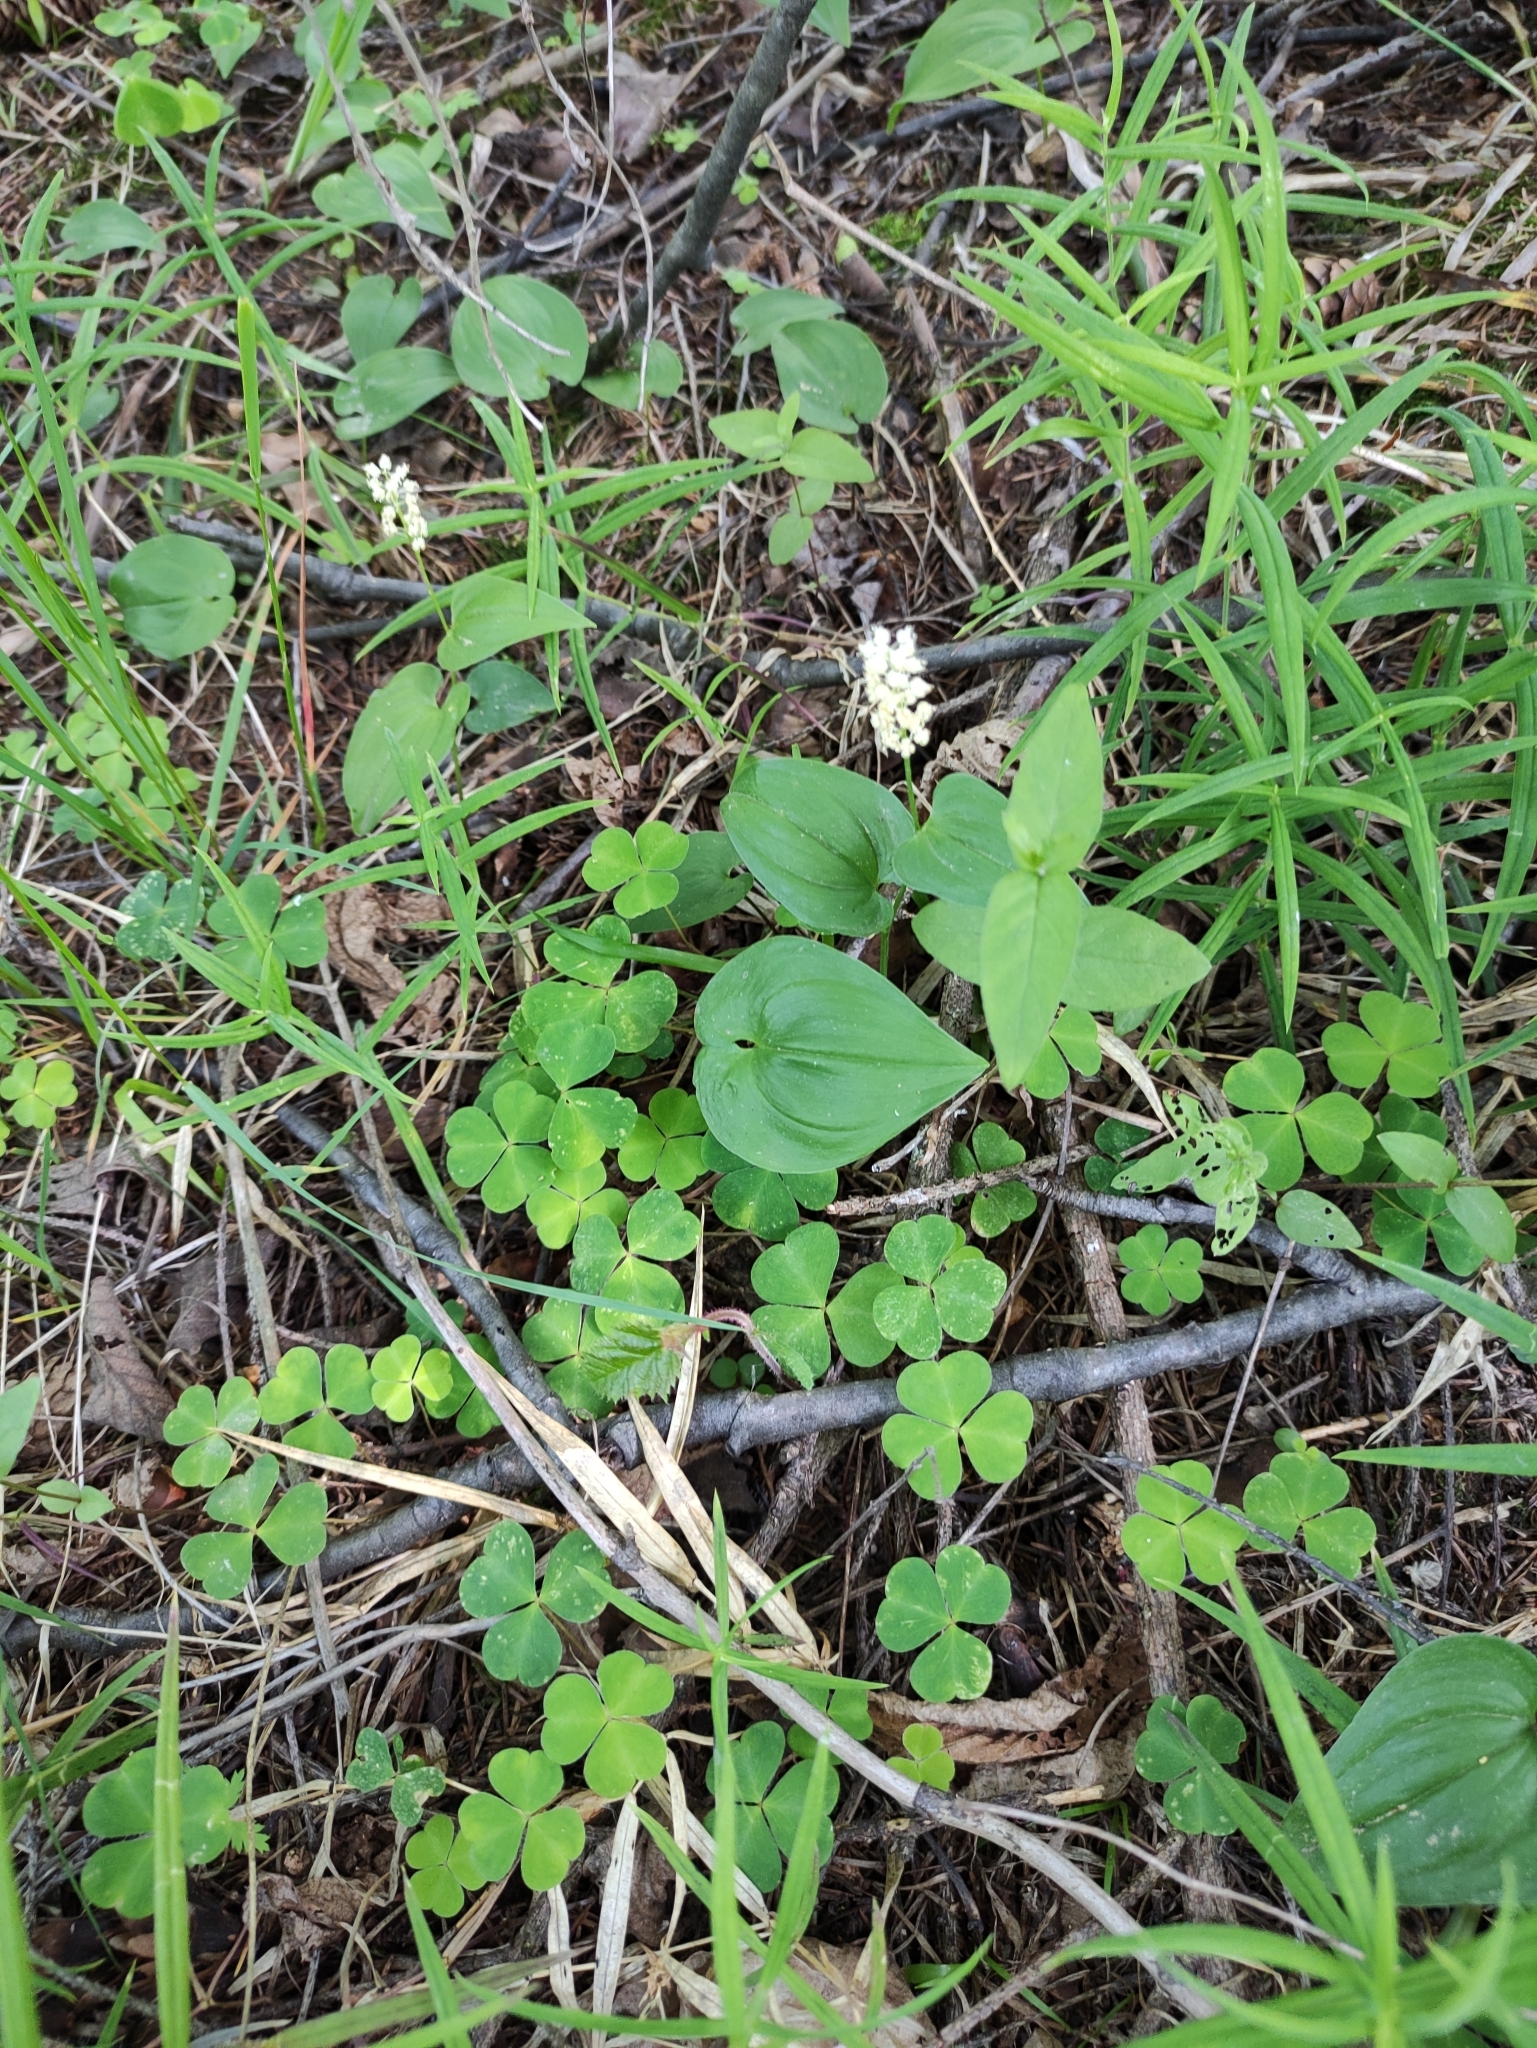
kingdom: Plantae
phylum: Tracheophyta
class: Liliopsida
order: Asparagales
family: Asparagaceae
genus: Maianthemum
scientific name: Maianthemum bifolium
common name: May lily
